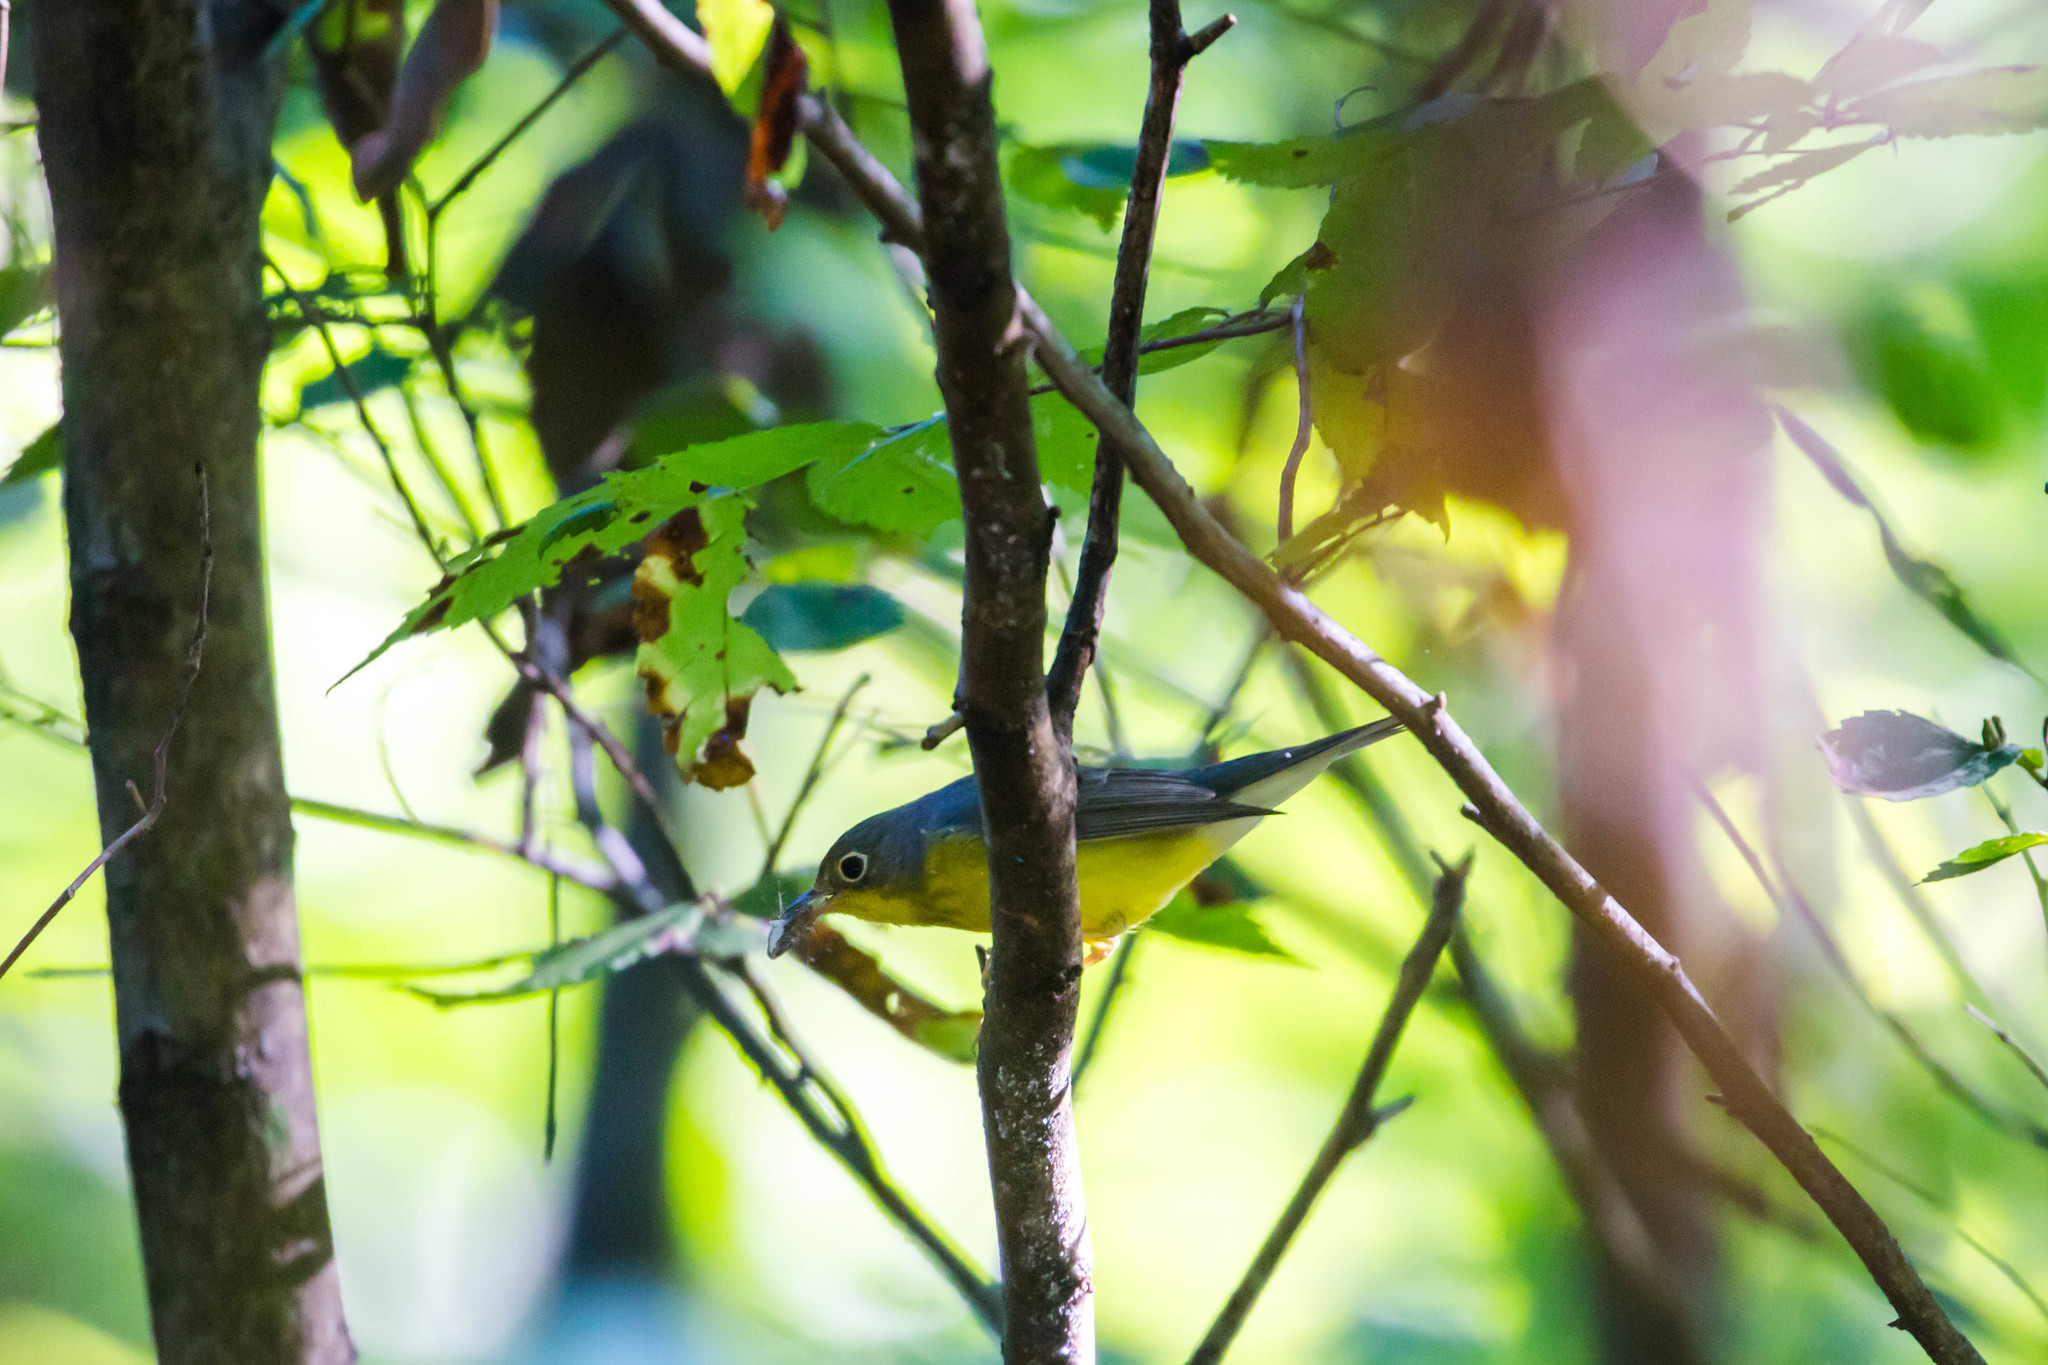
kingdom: Animalia
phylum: Chordata
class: Aves
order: Passeriformes
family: Parulidae
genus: Cardellina
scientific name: Cardellina canadensis
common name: Canada warbler
